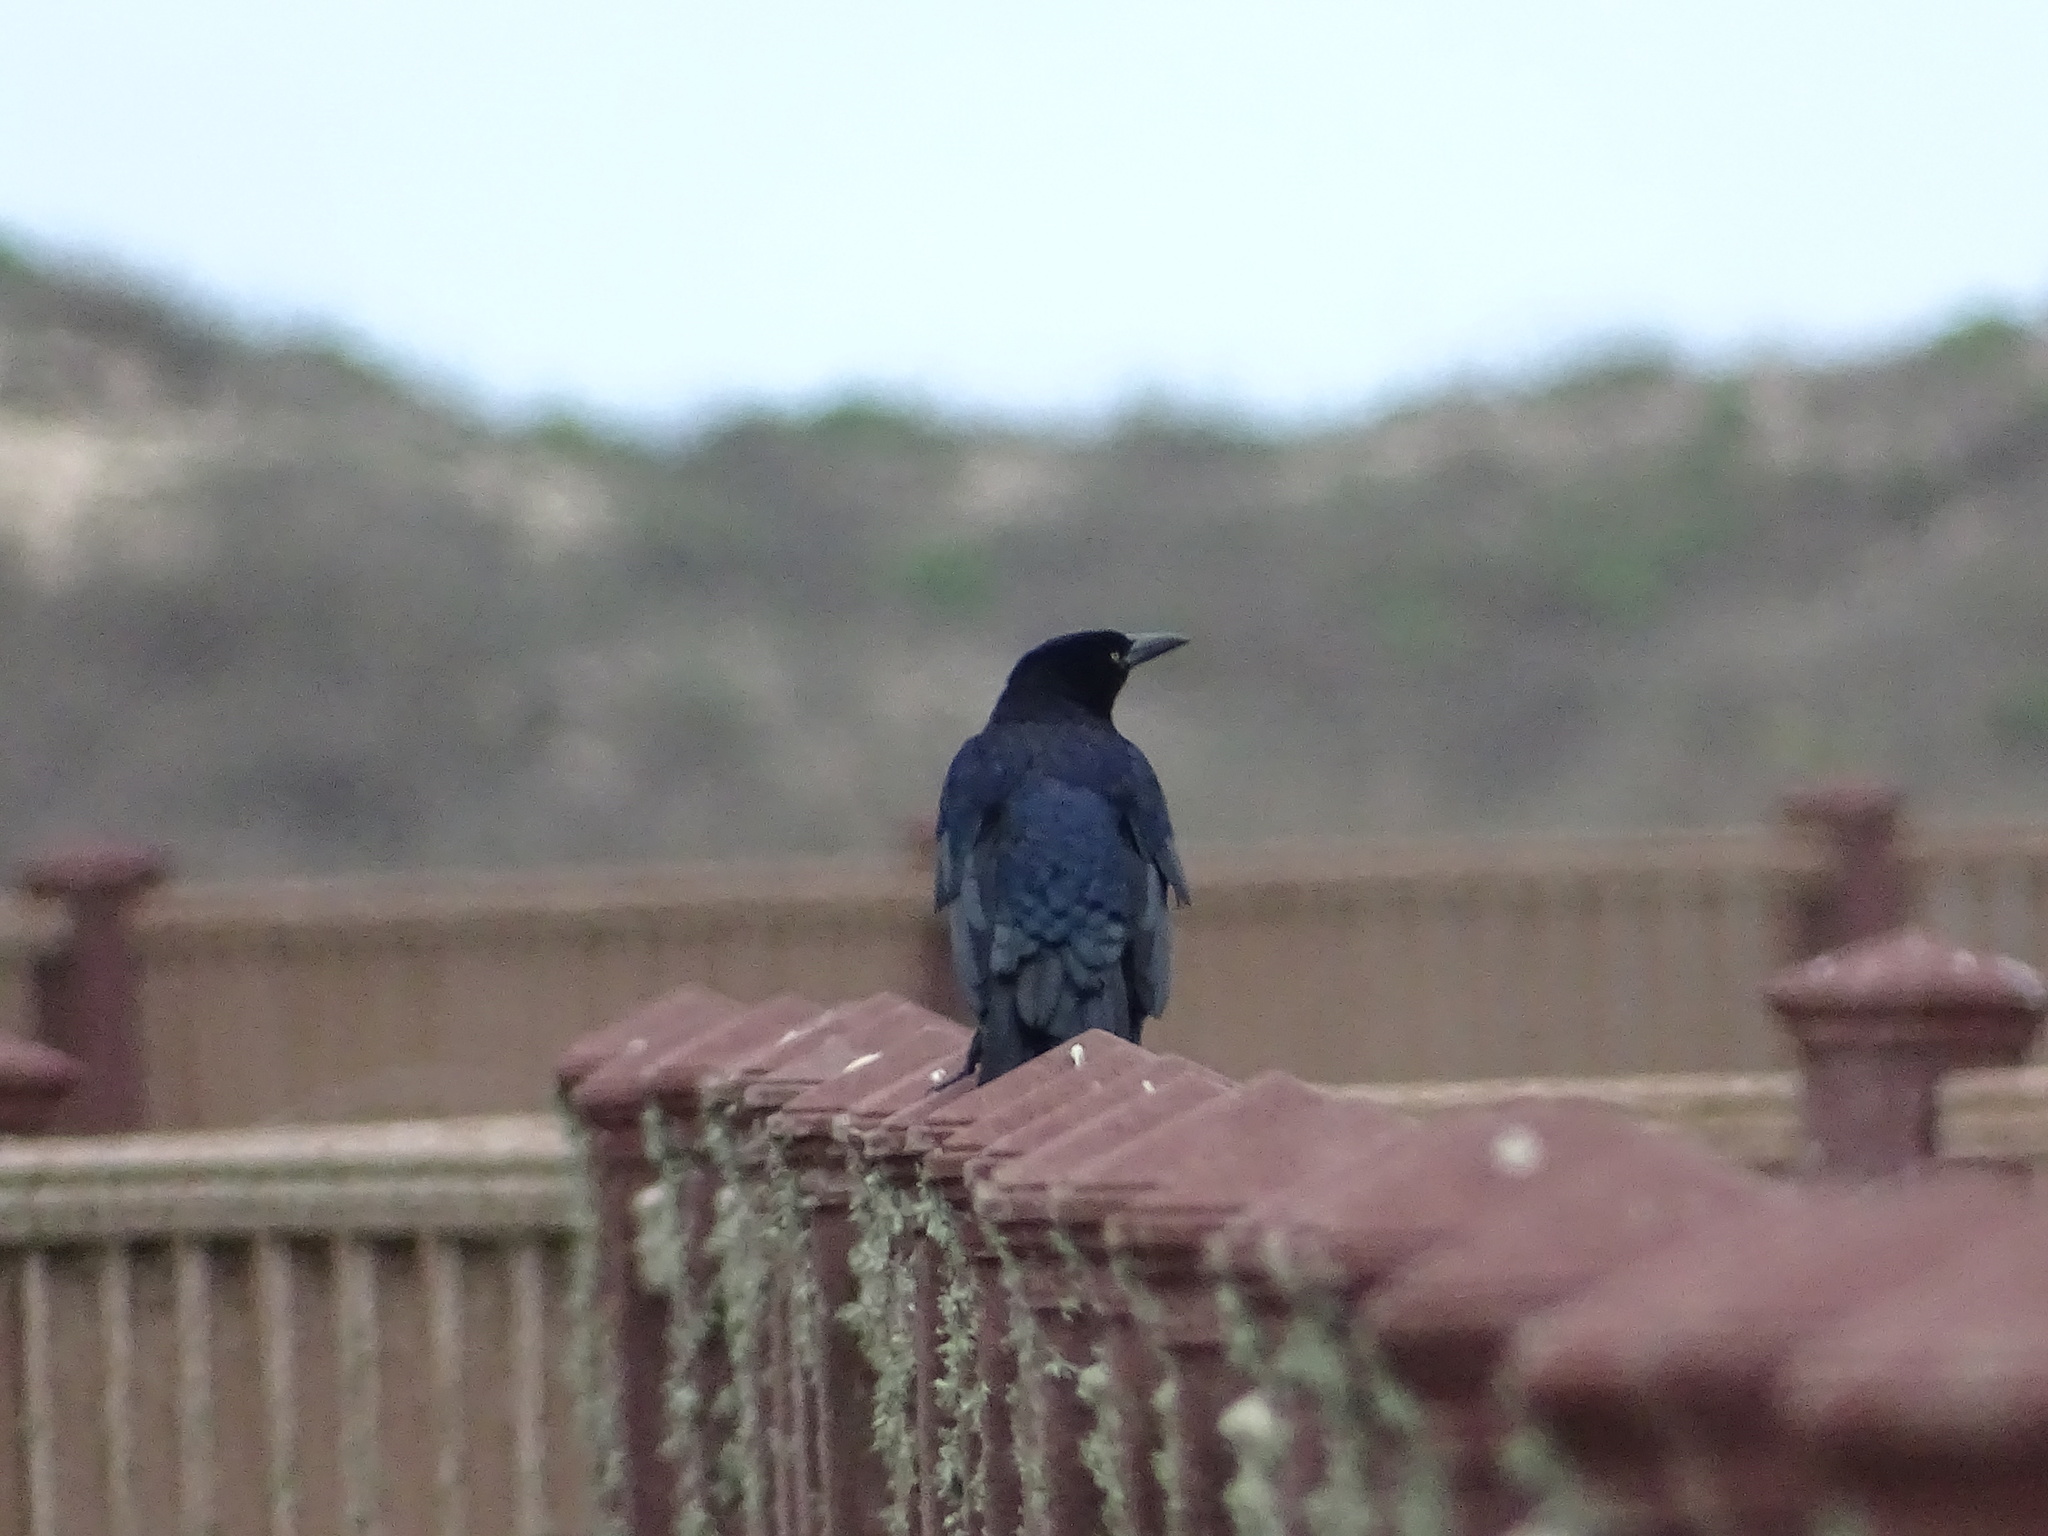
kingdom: Animalia
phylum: Chordata
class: Aves
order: Passeriformes
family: Icteridae
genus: Quiscalus
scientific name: Quiscalus mexicanus
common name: Great-tailed grackle
